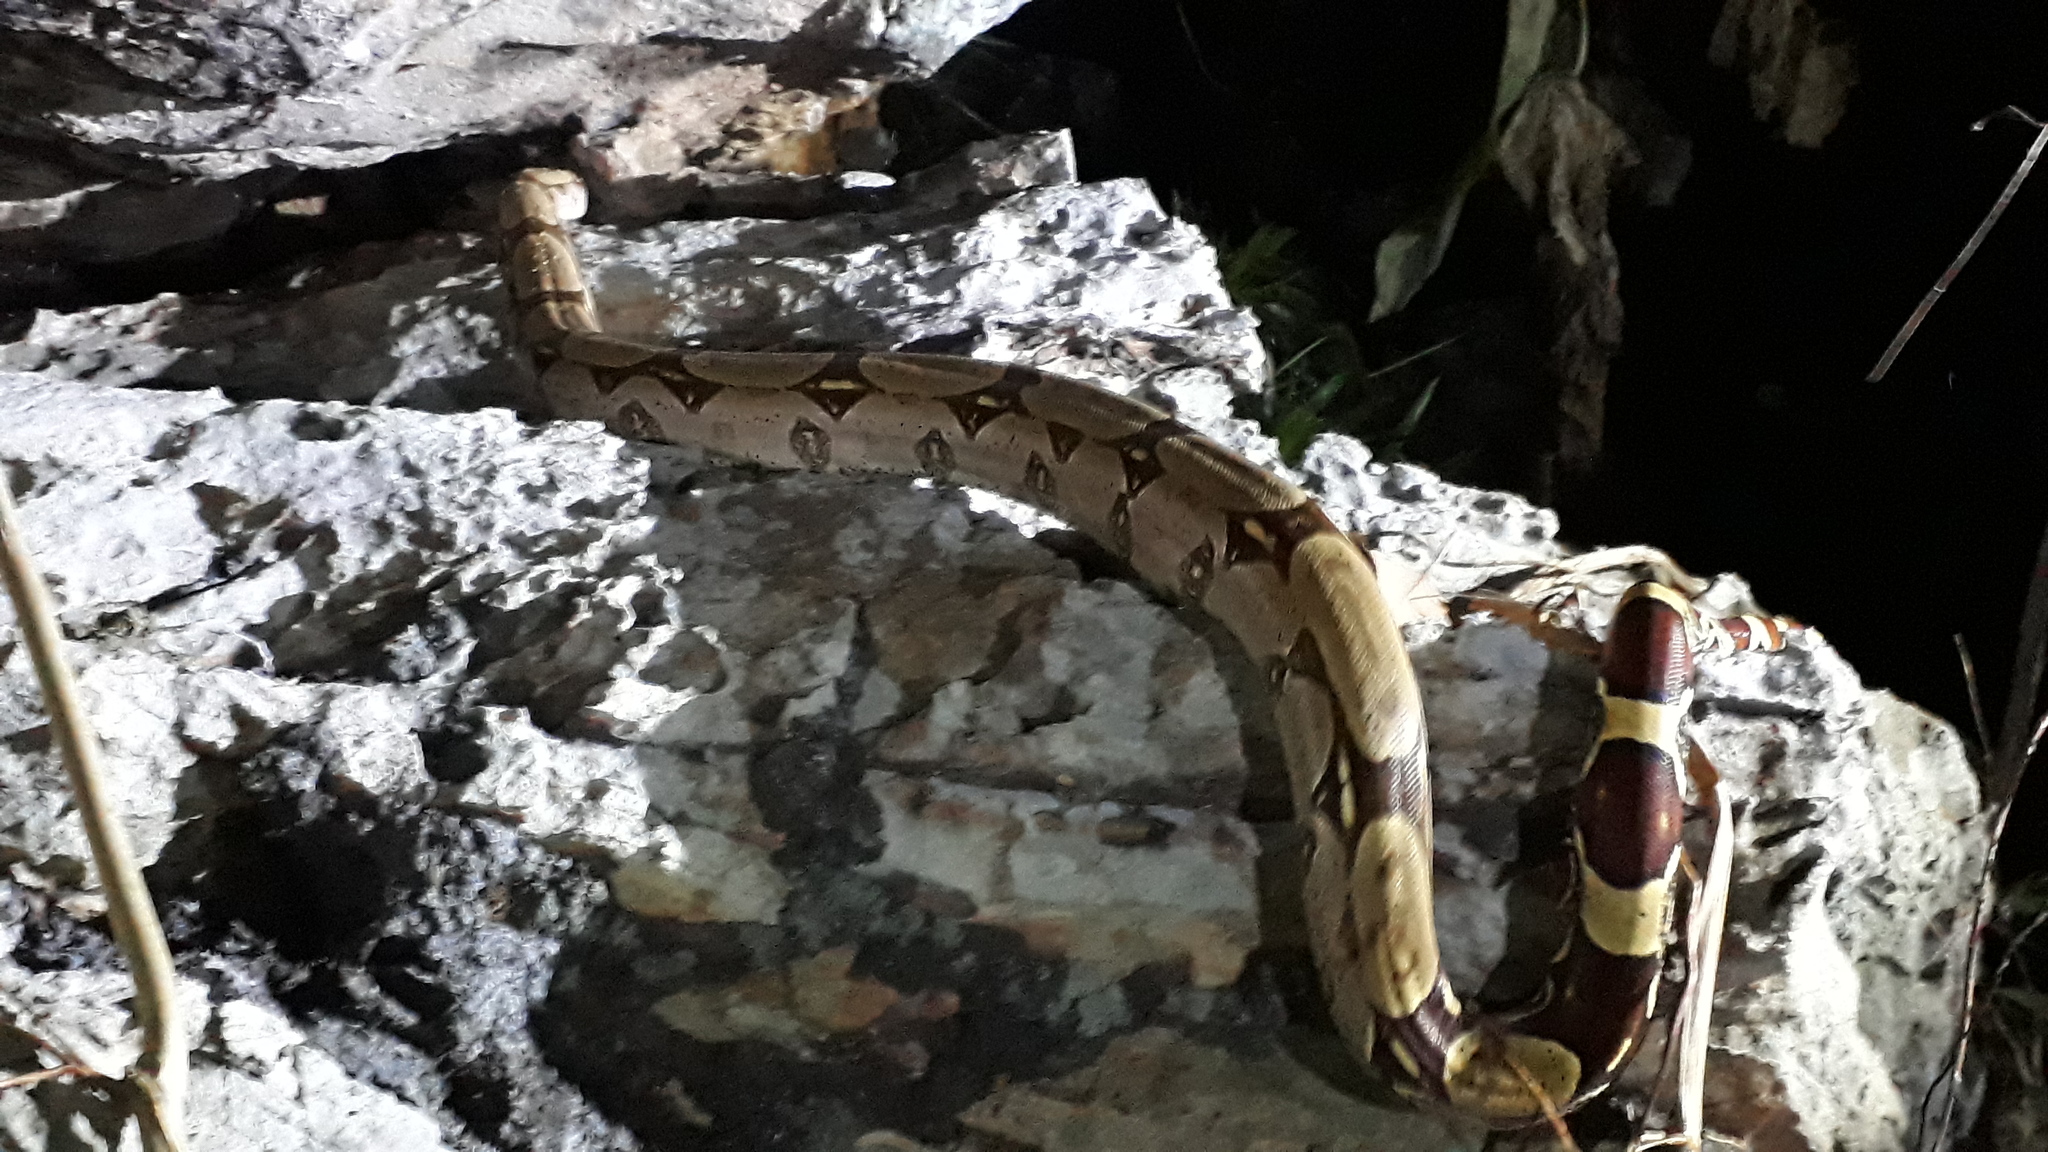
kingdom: Animalia
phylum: Chordata
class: Squamata
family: Boidae
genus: Boa
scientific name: Boa constrictor
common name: Boa constrictor
